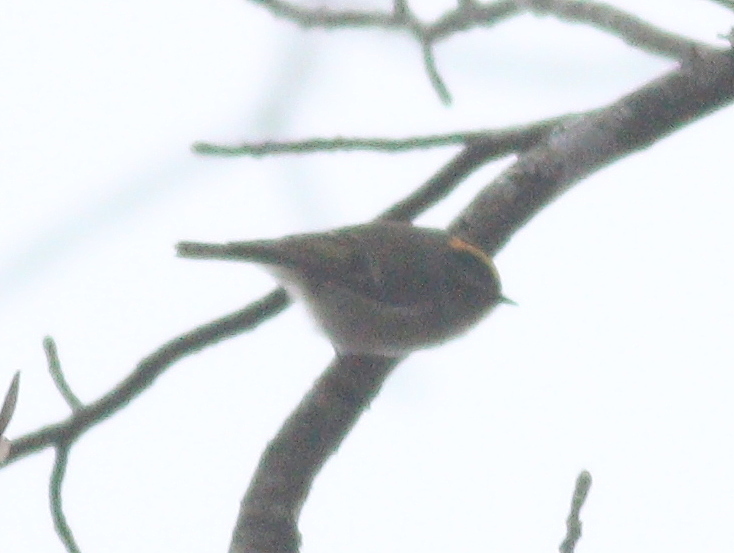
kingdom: Animalia
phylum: Chordata
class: Aves
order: Passeriformes
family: Regulidae
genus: Regulus
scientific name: Regulus satrapa
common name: Golden-crowned kinglet
